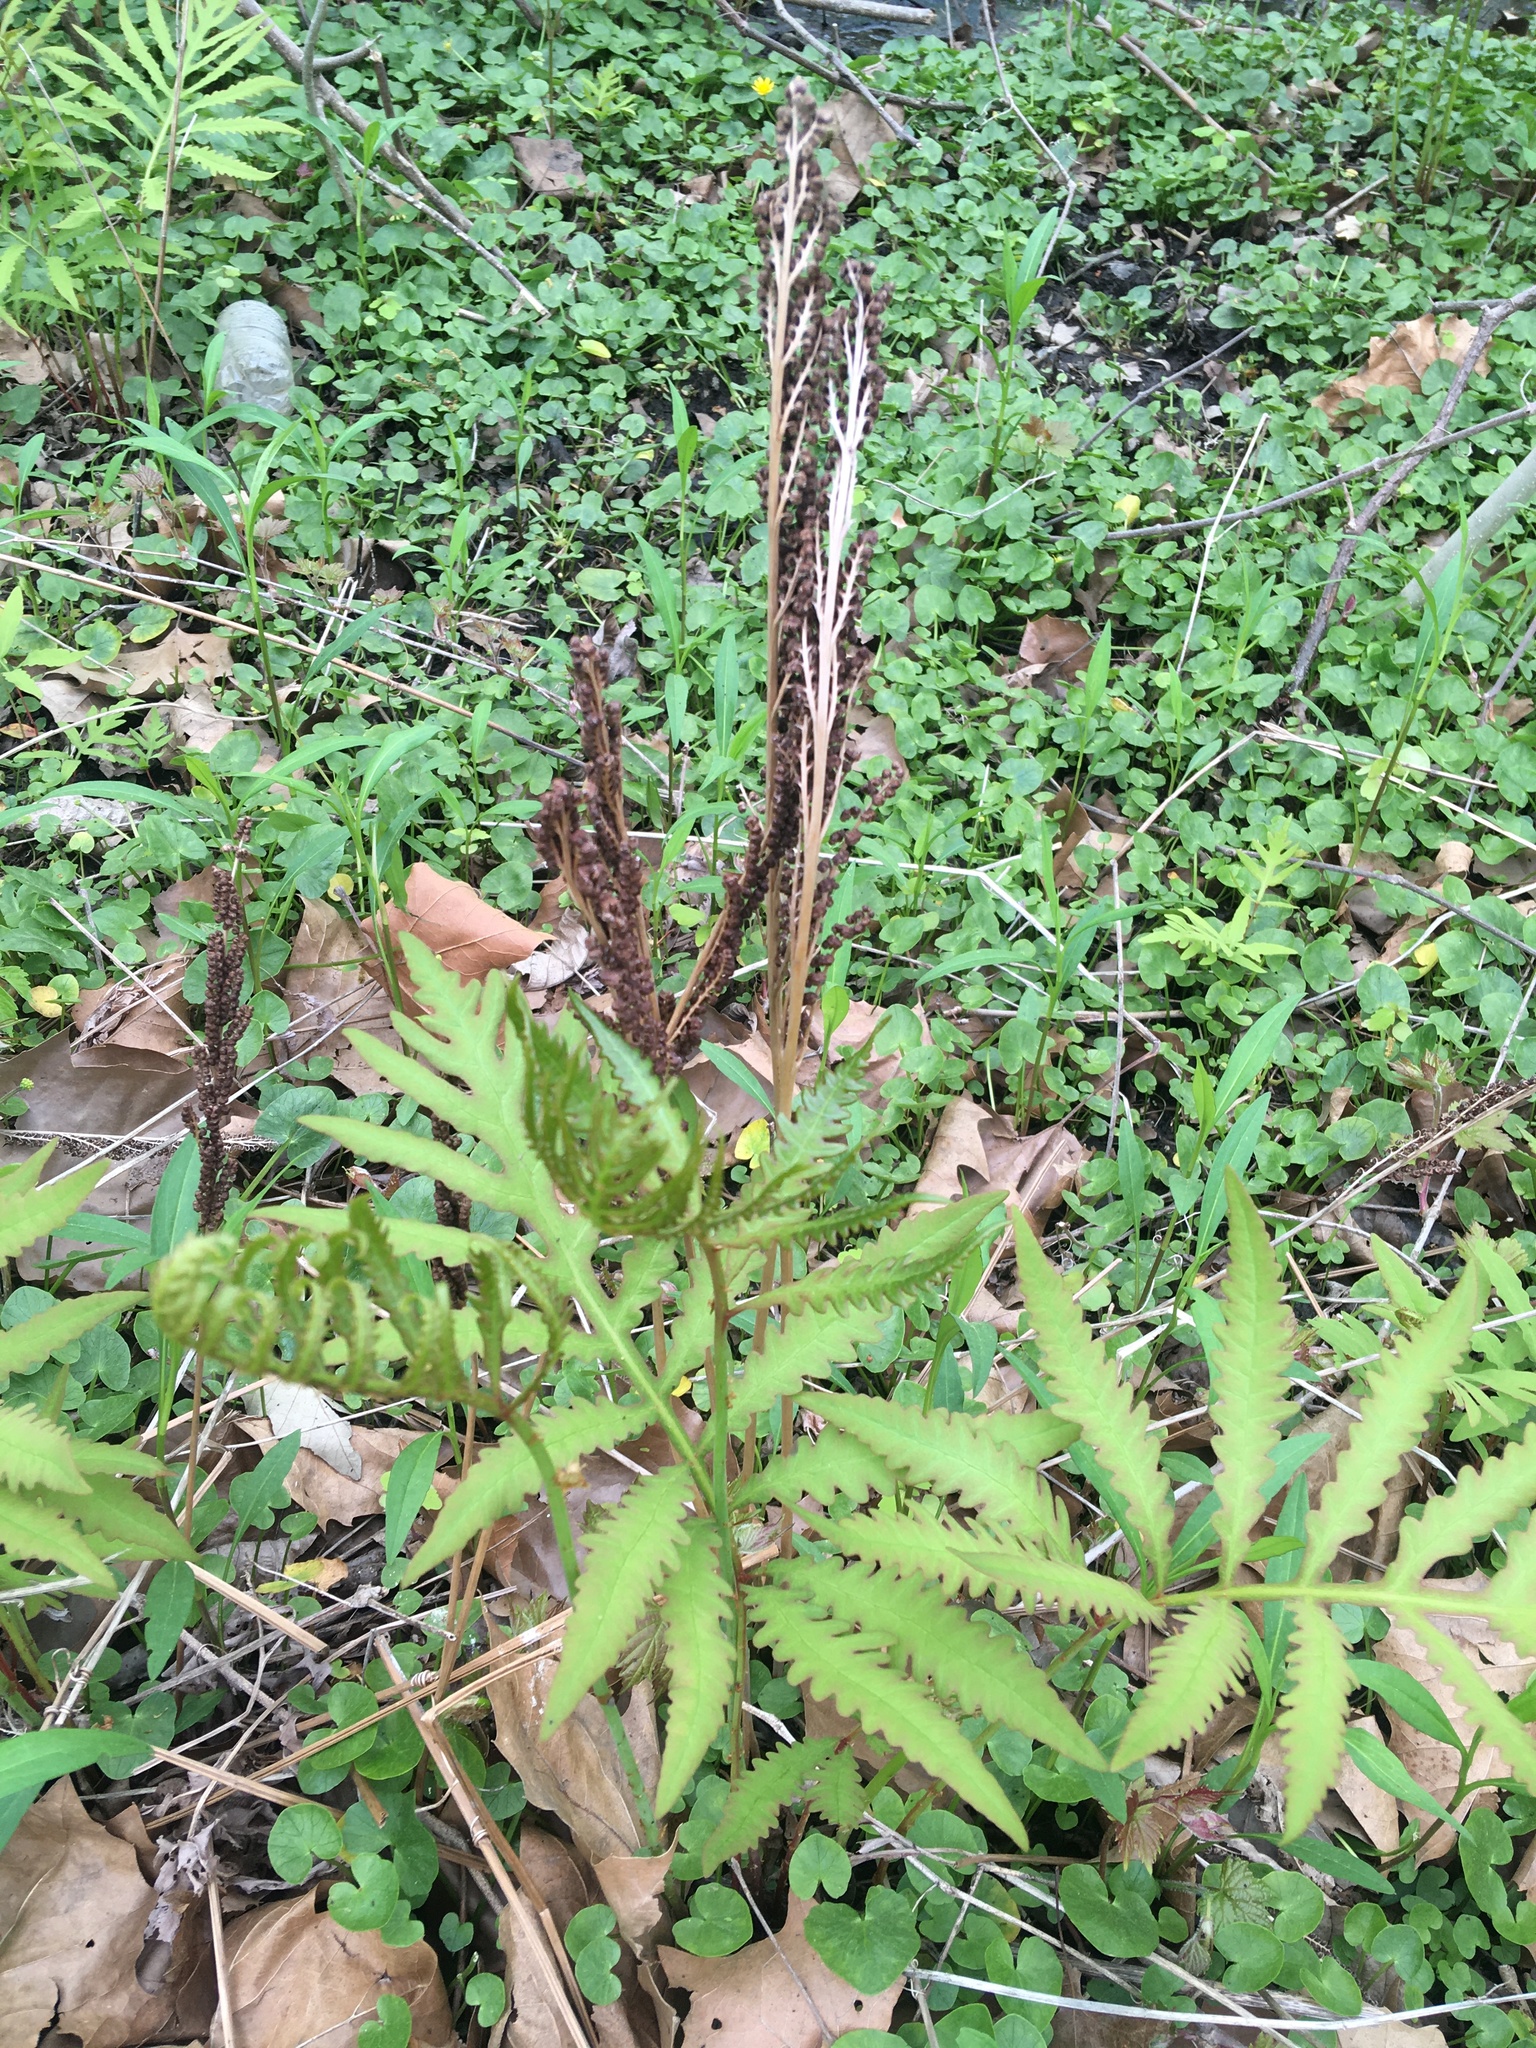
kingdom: Plantae
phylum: Tracheophyta
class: Polypodiopsida
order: Polypodiales
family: Onocleaceae
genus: Onoclea
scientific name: Onoclea sensibilis
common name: Sensitive fern
